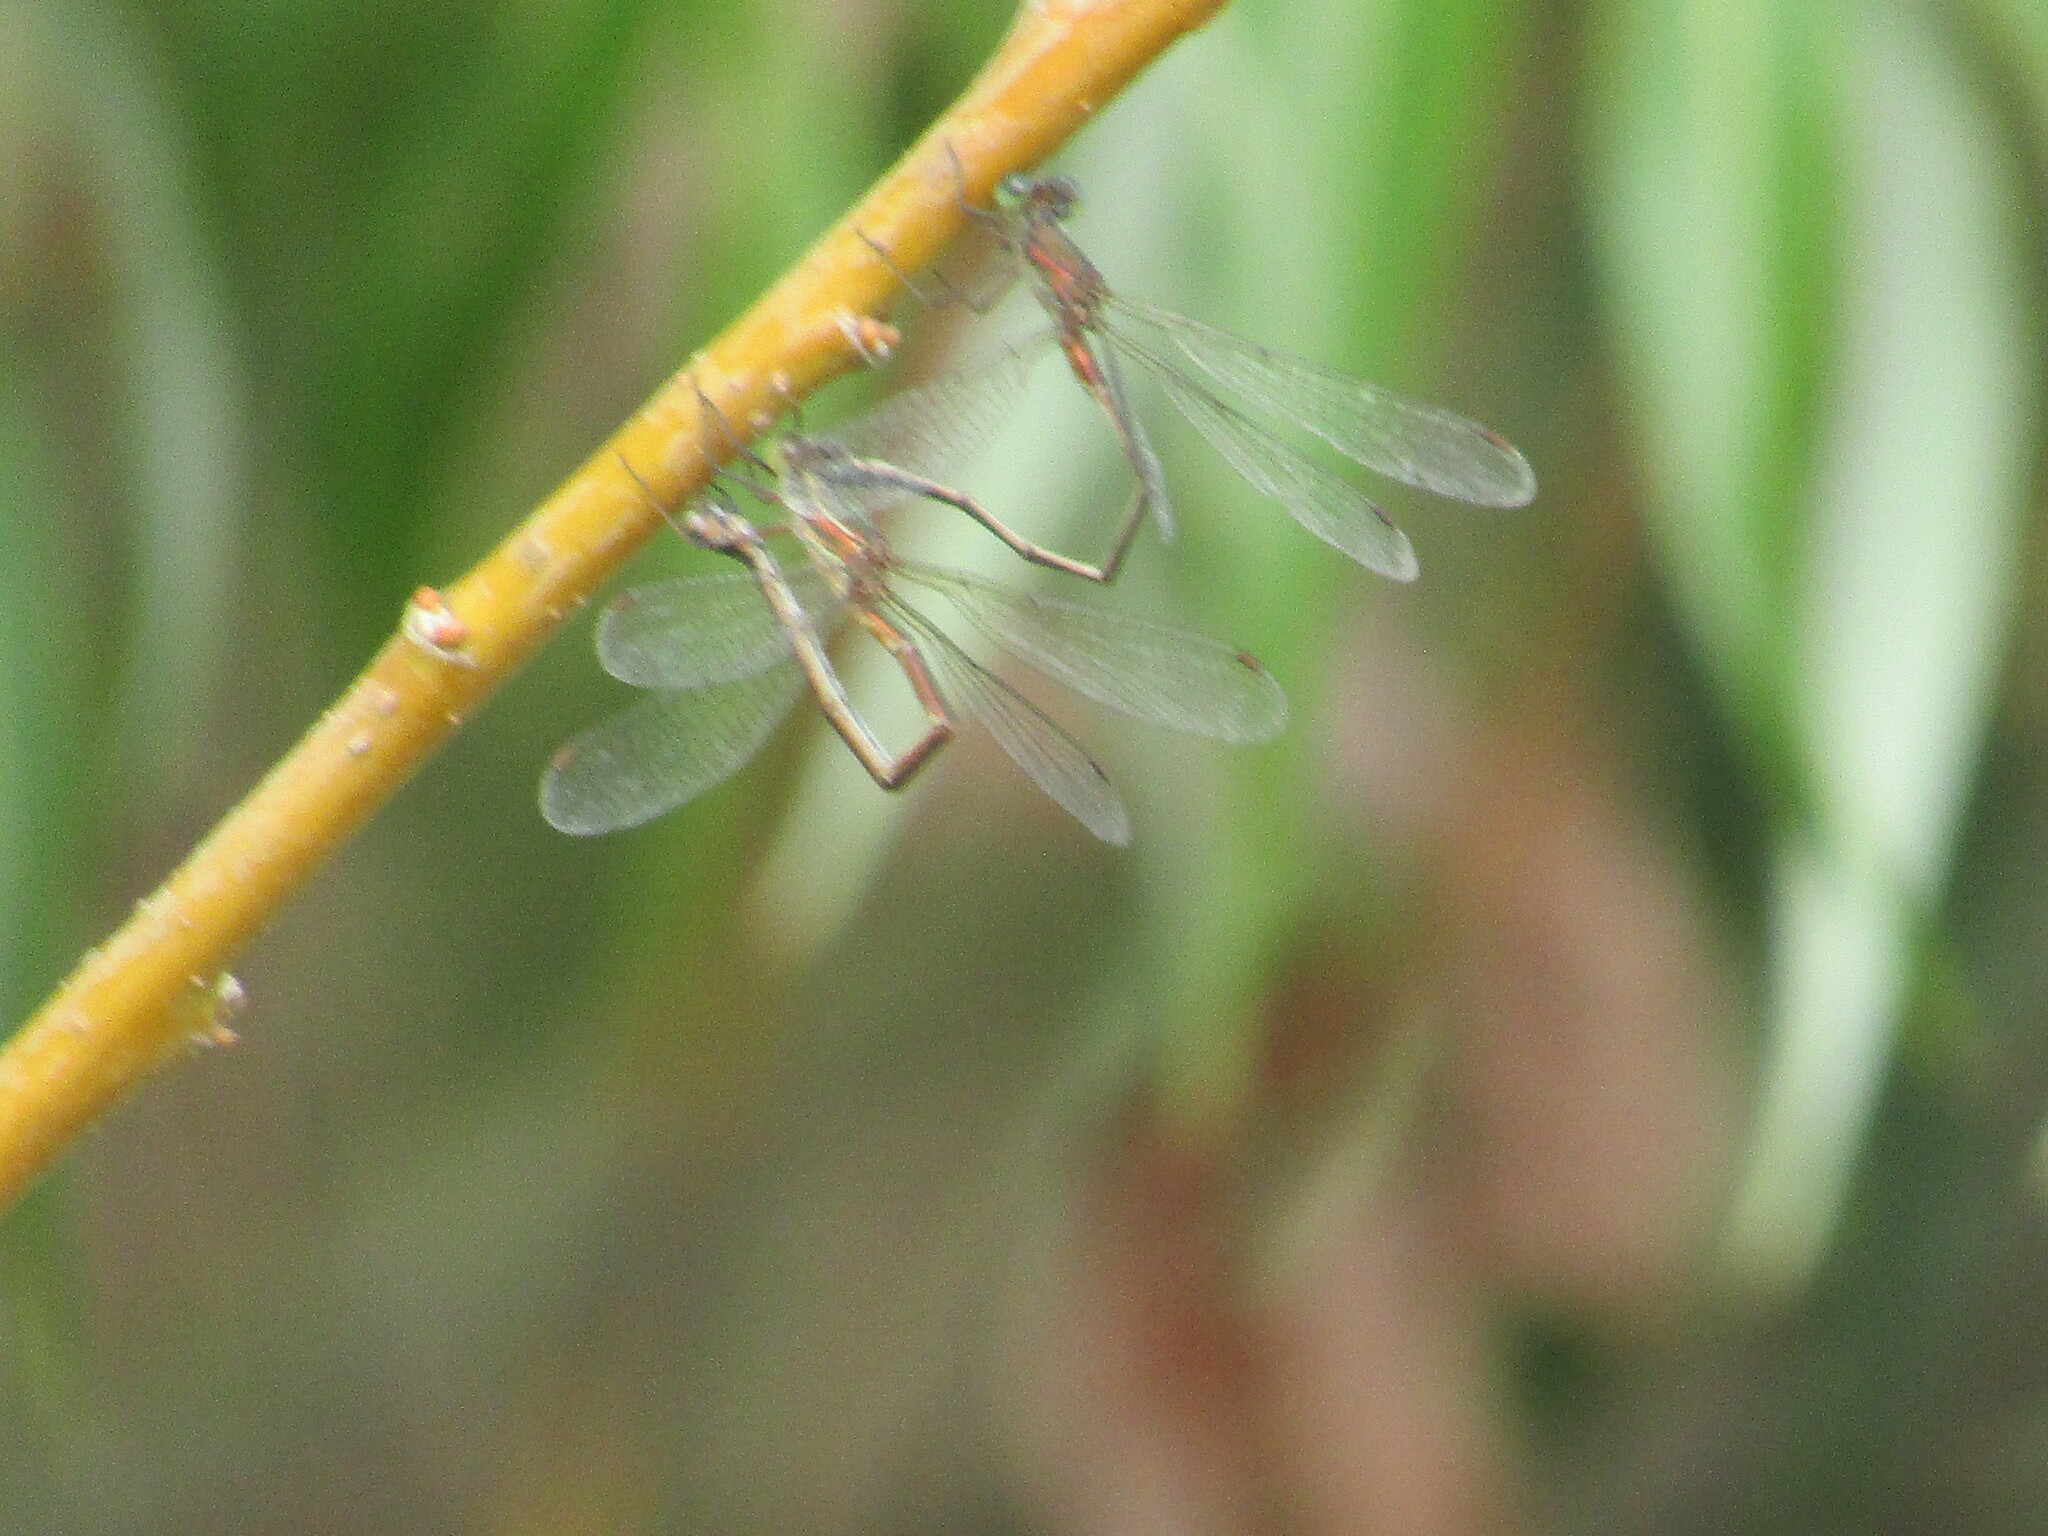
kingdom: Animalia
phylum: Arthropoda
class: Insecta
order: Odonata
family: Lestidae
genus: Chalcolestes
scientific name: Chalcolestes parvidens
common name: Eastern willow spreadwing
